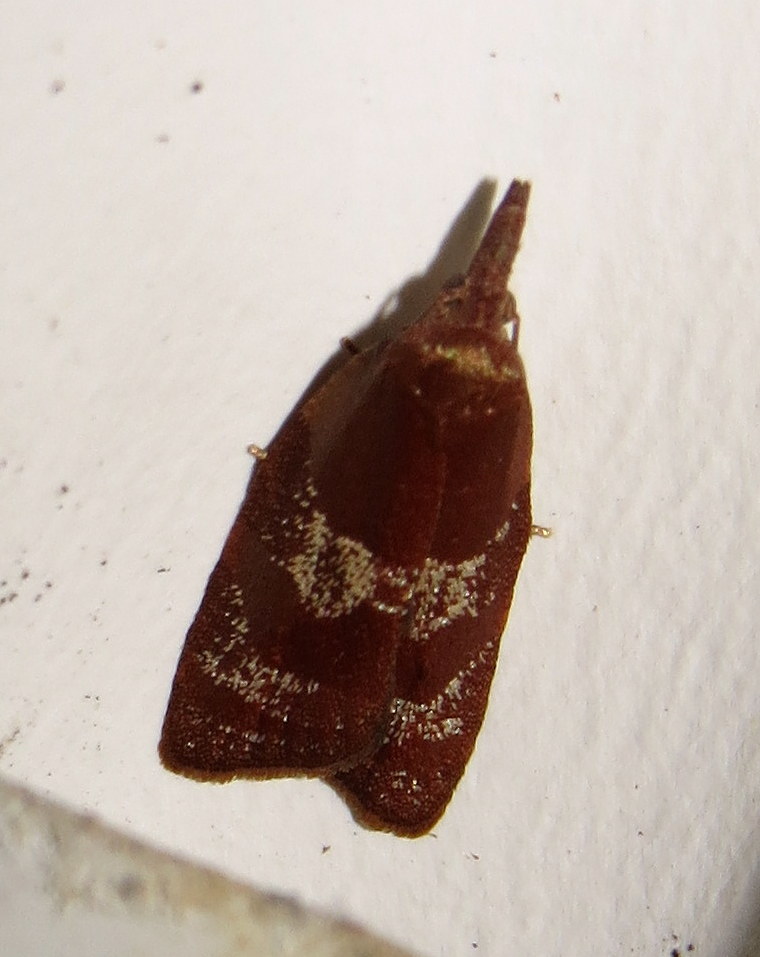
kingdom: Animalia
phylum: Arthropoda
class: Insecta
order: Lepidoptera
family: Tortricidae
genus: Cenopis
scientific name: Cenopis diluticostana
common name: Spring dead-leaf roller moth
